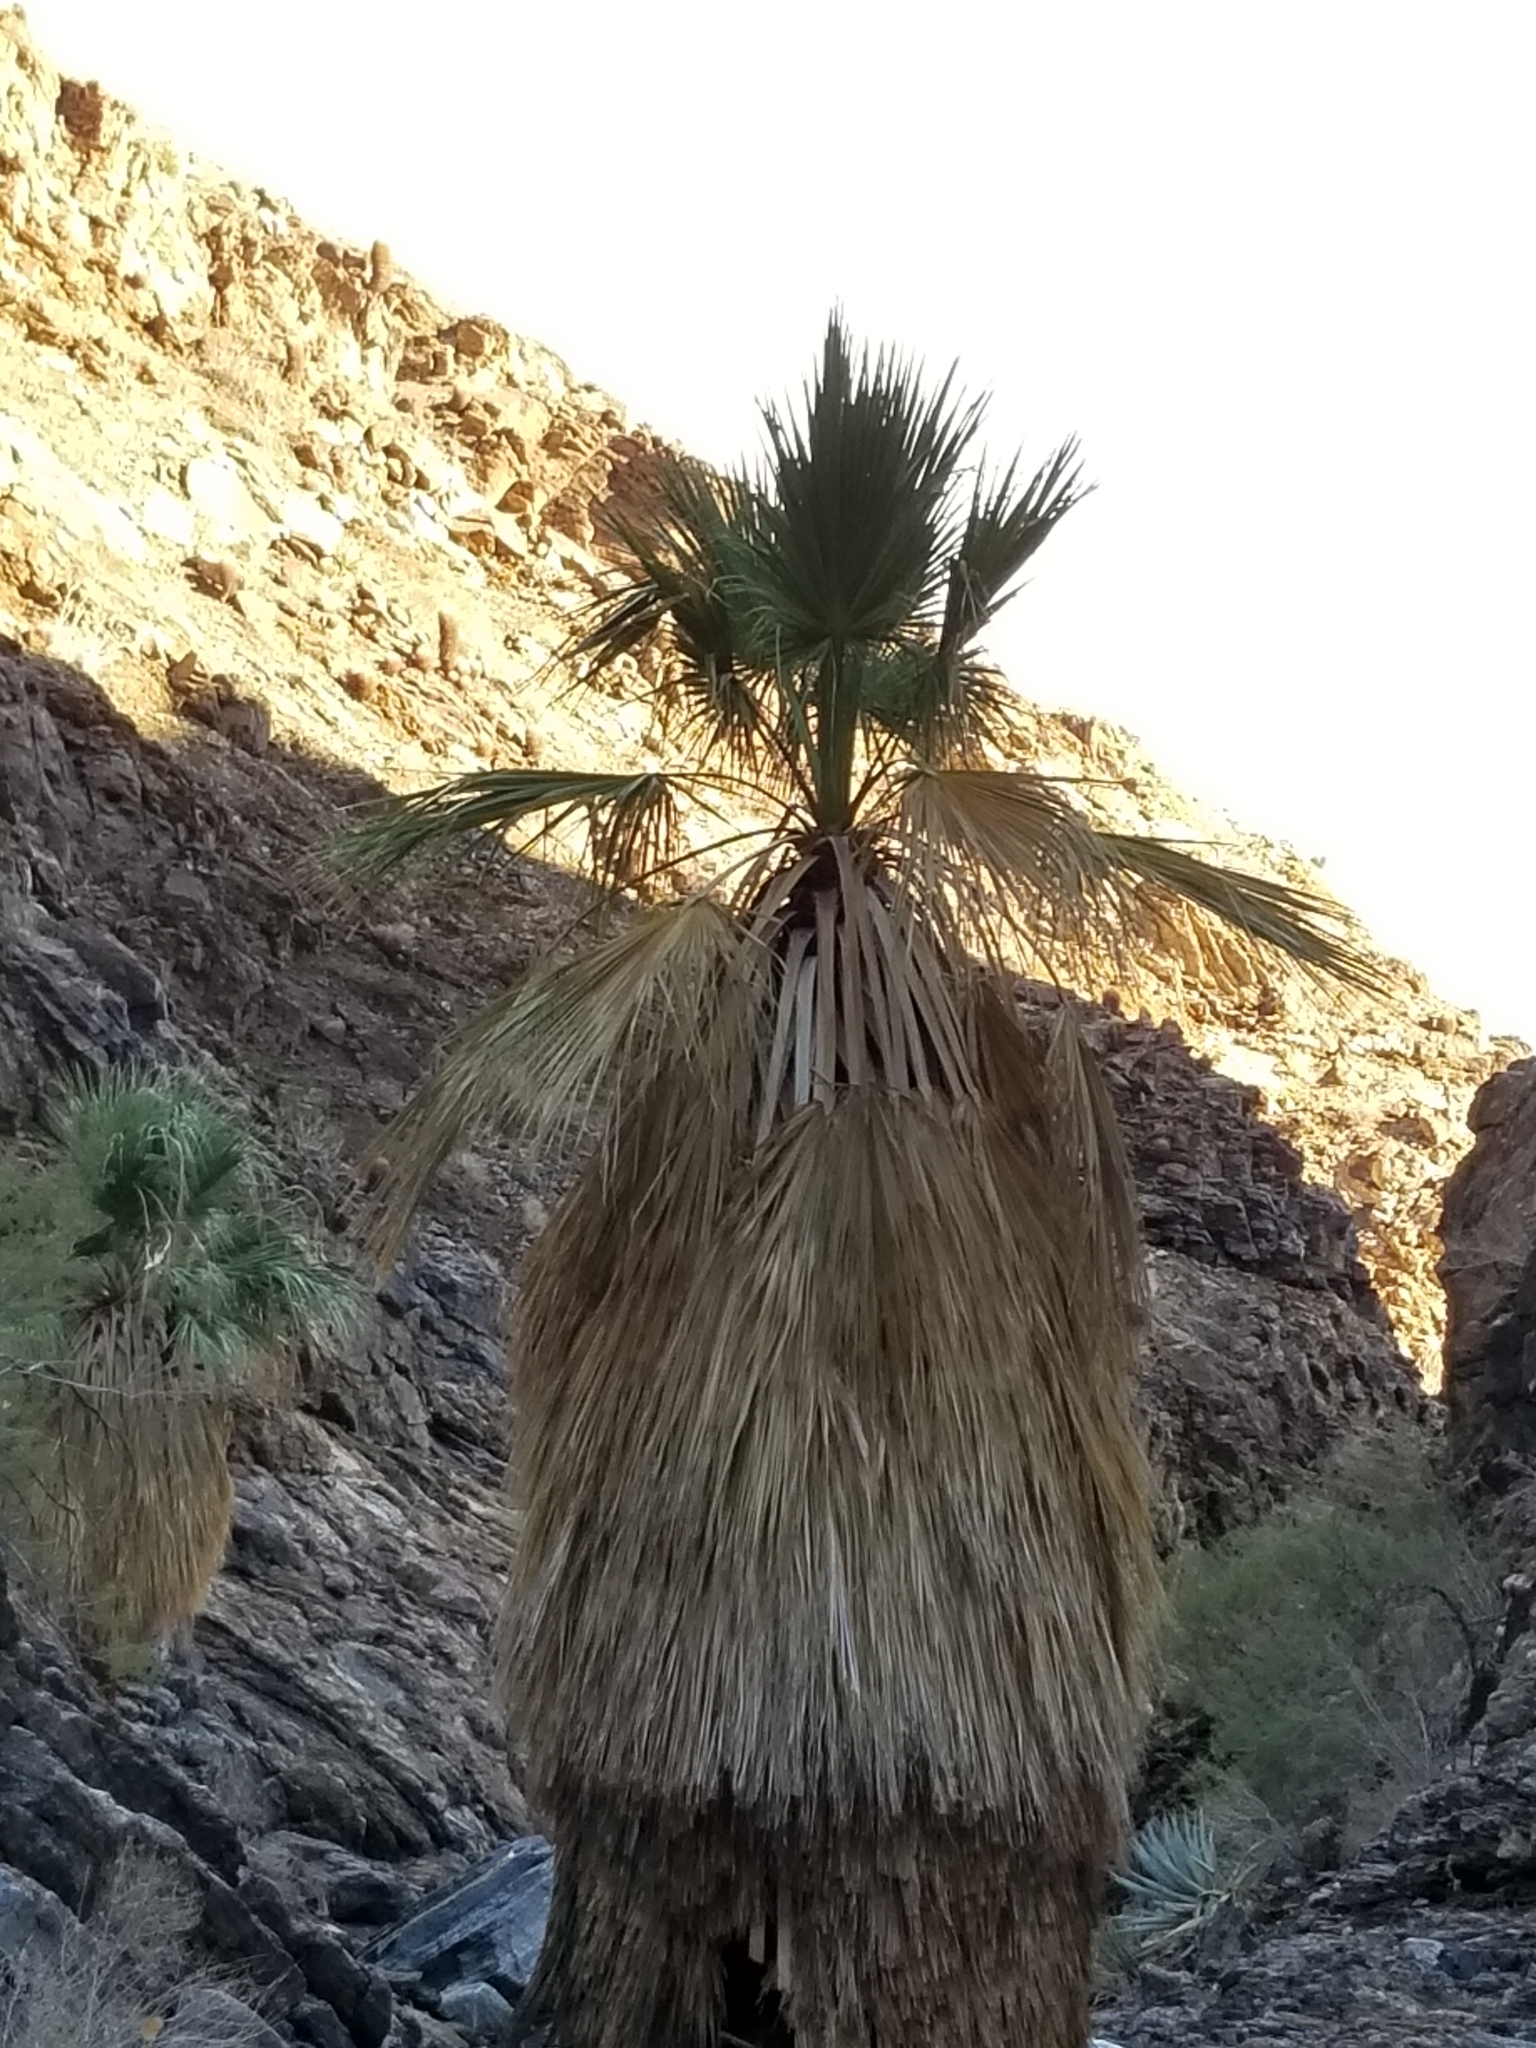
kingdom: Plantae
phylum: Tracheophyta
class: Liliopsida
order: Arecales
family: Arecaceae
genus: Washingtonia
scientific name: Washingtonia filifera
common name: California fan palm
